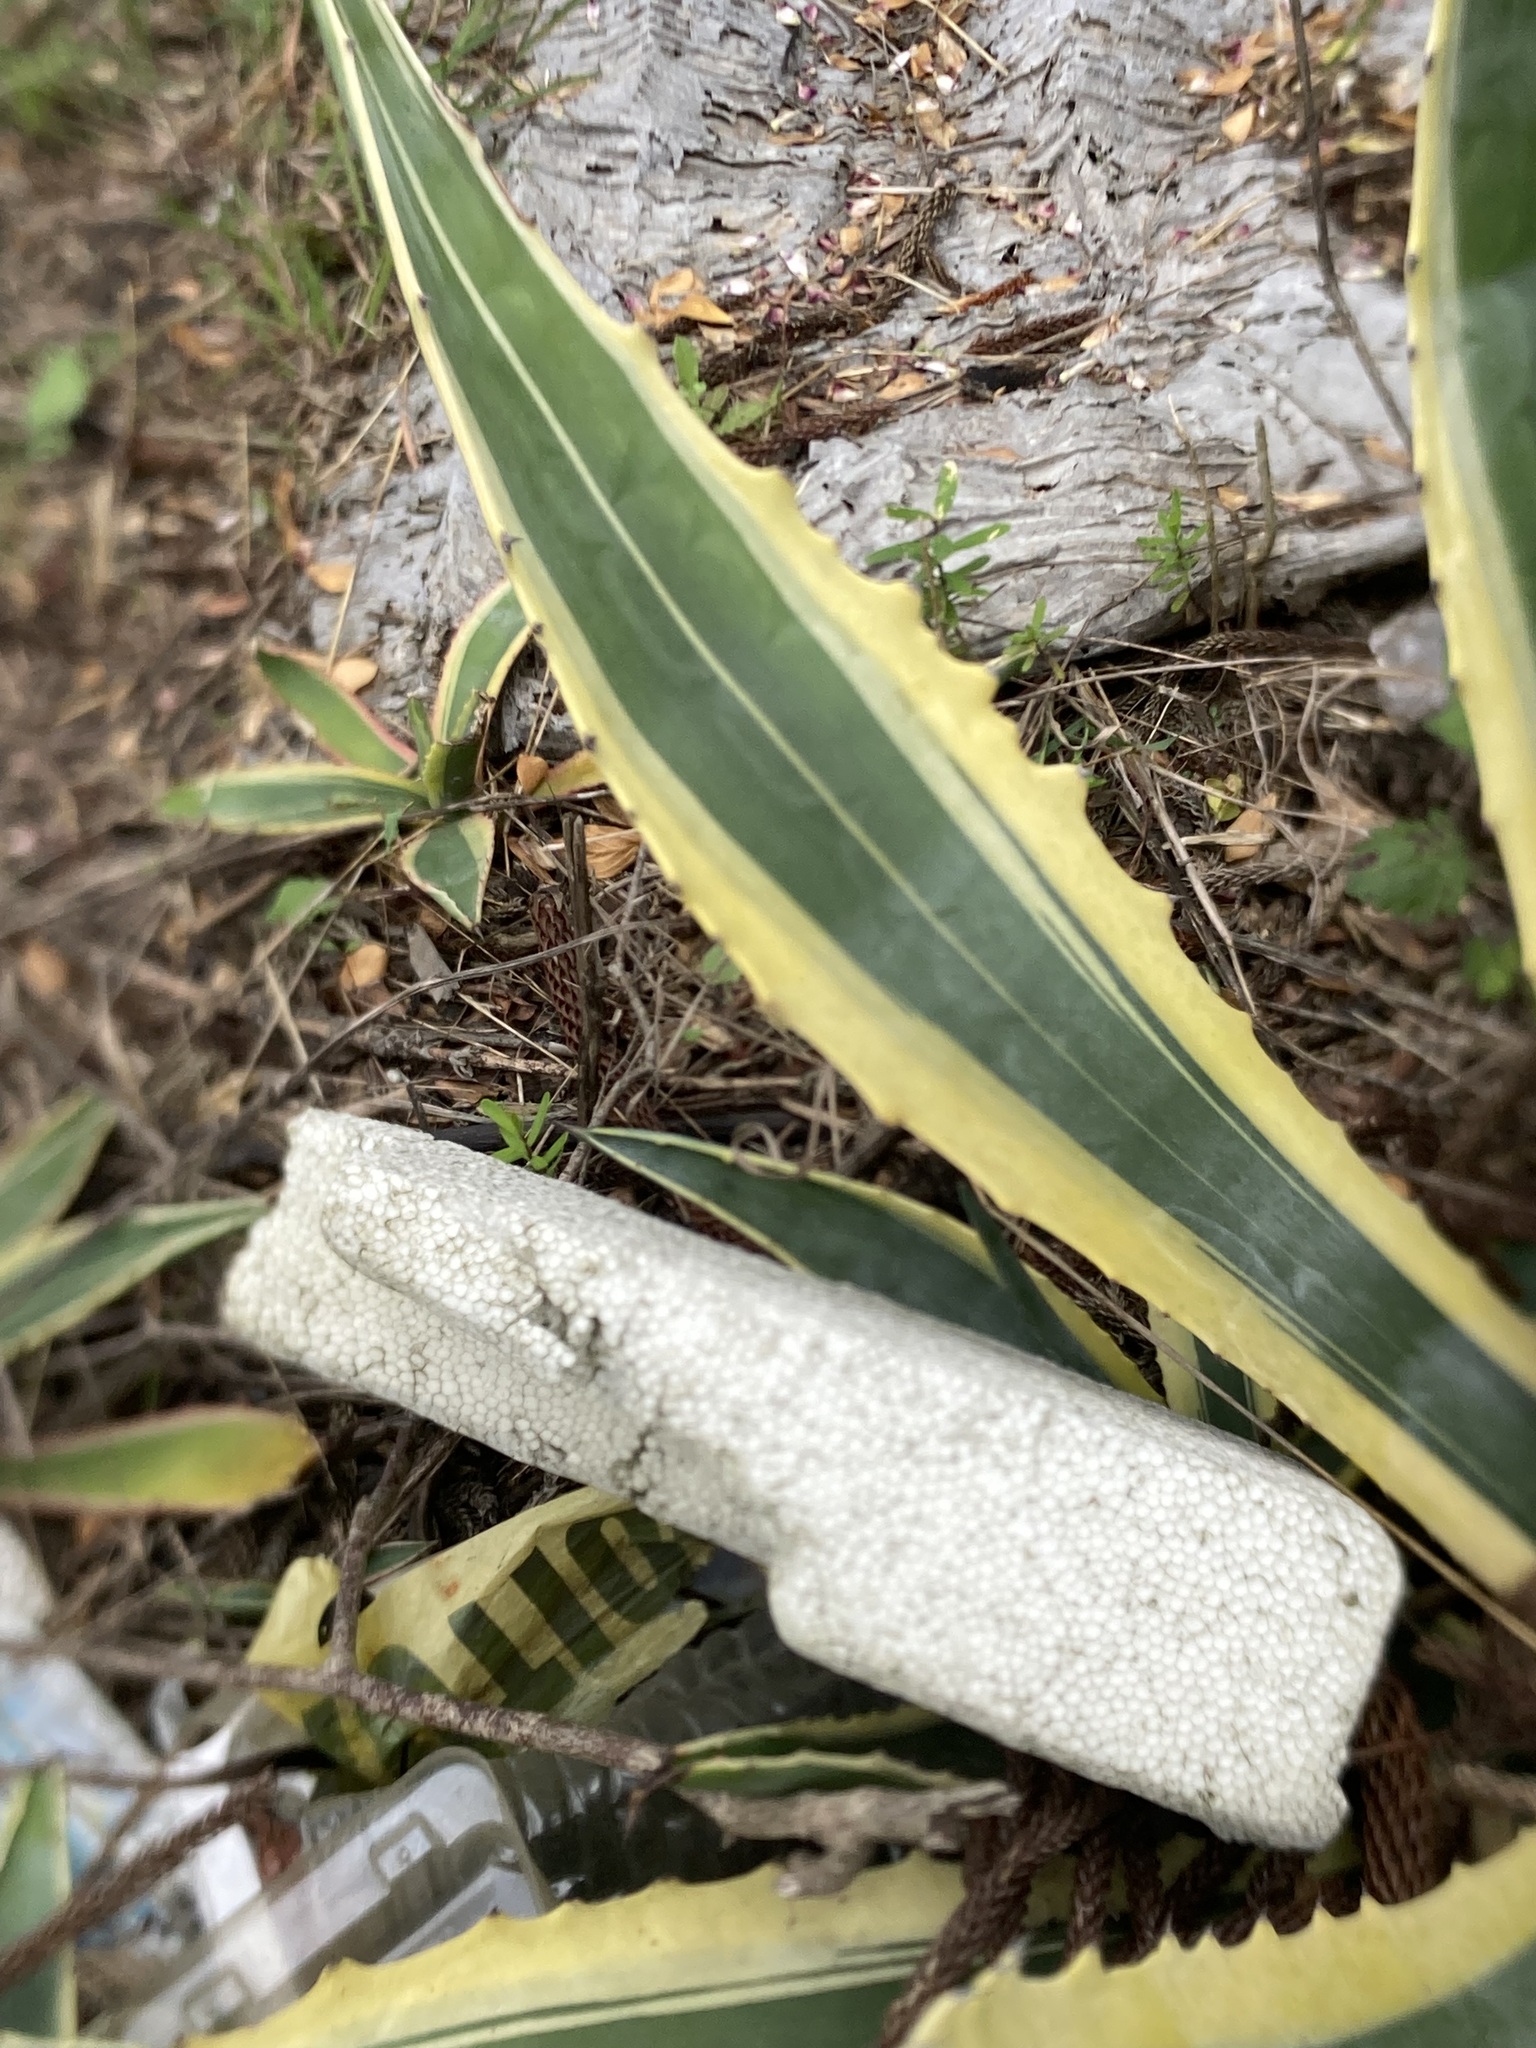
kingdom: Plantae
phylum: Tracheophyta
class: Liliopsida
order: Asparagales
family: Asparagaceae
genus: Agave
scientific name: Agave americana
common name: Centuryplant
